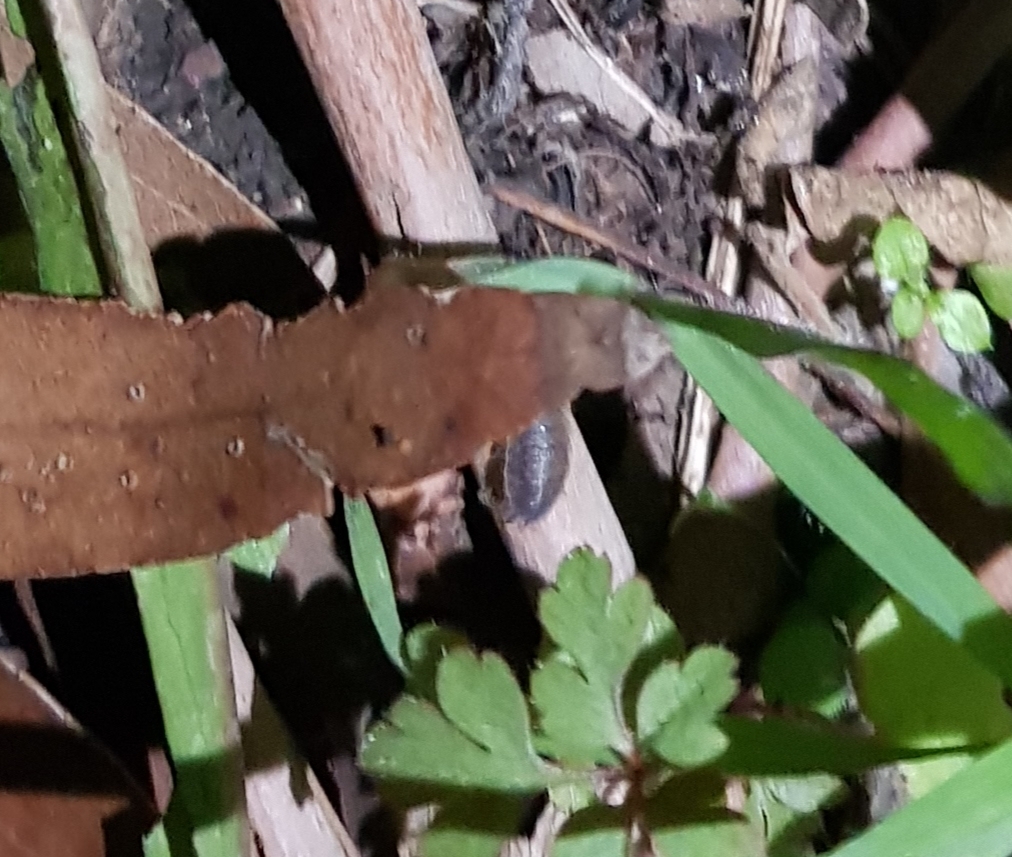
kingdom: Animalia
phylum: Arthropoda
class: Malacostraca
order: Isopoda
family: Porcellionidae
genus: Porcellio
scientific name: Porcellio scaber
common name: Common rough woodlouse
